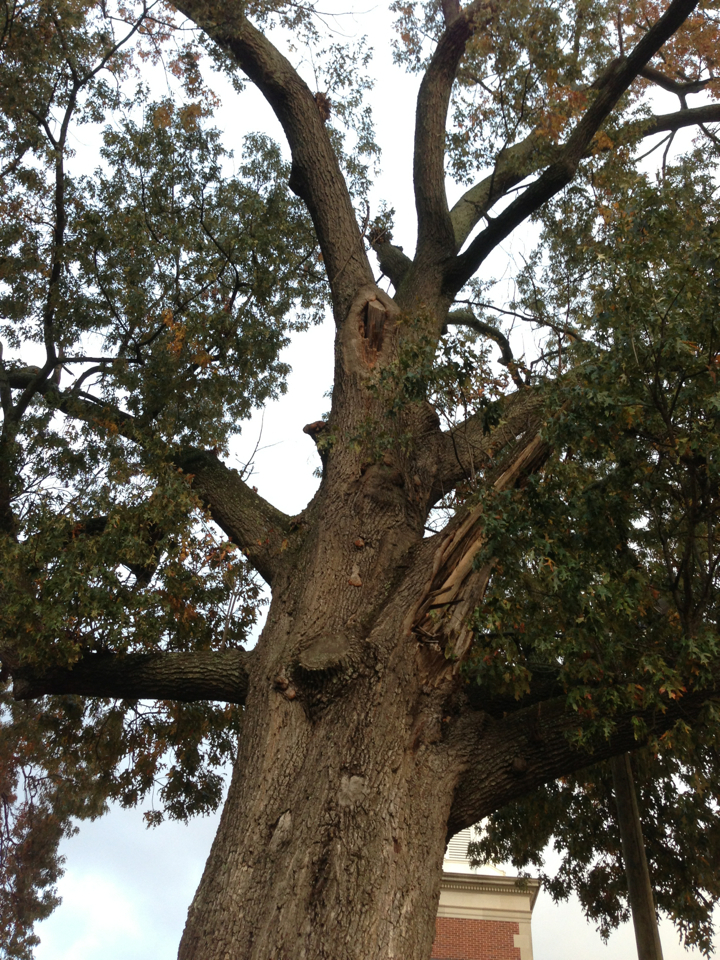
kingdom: Plantae
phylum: Tracheophyta
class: Magnoliopsida
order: Fagales
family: Fagaceae
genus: Quercus
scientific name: Quercus falcata
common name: Southern red oak
